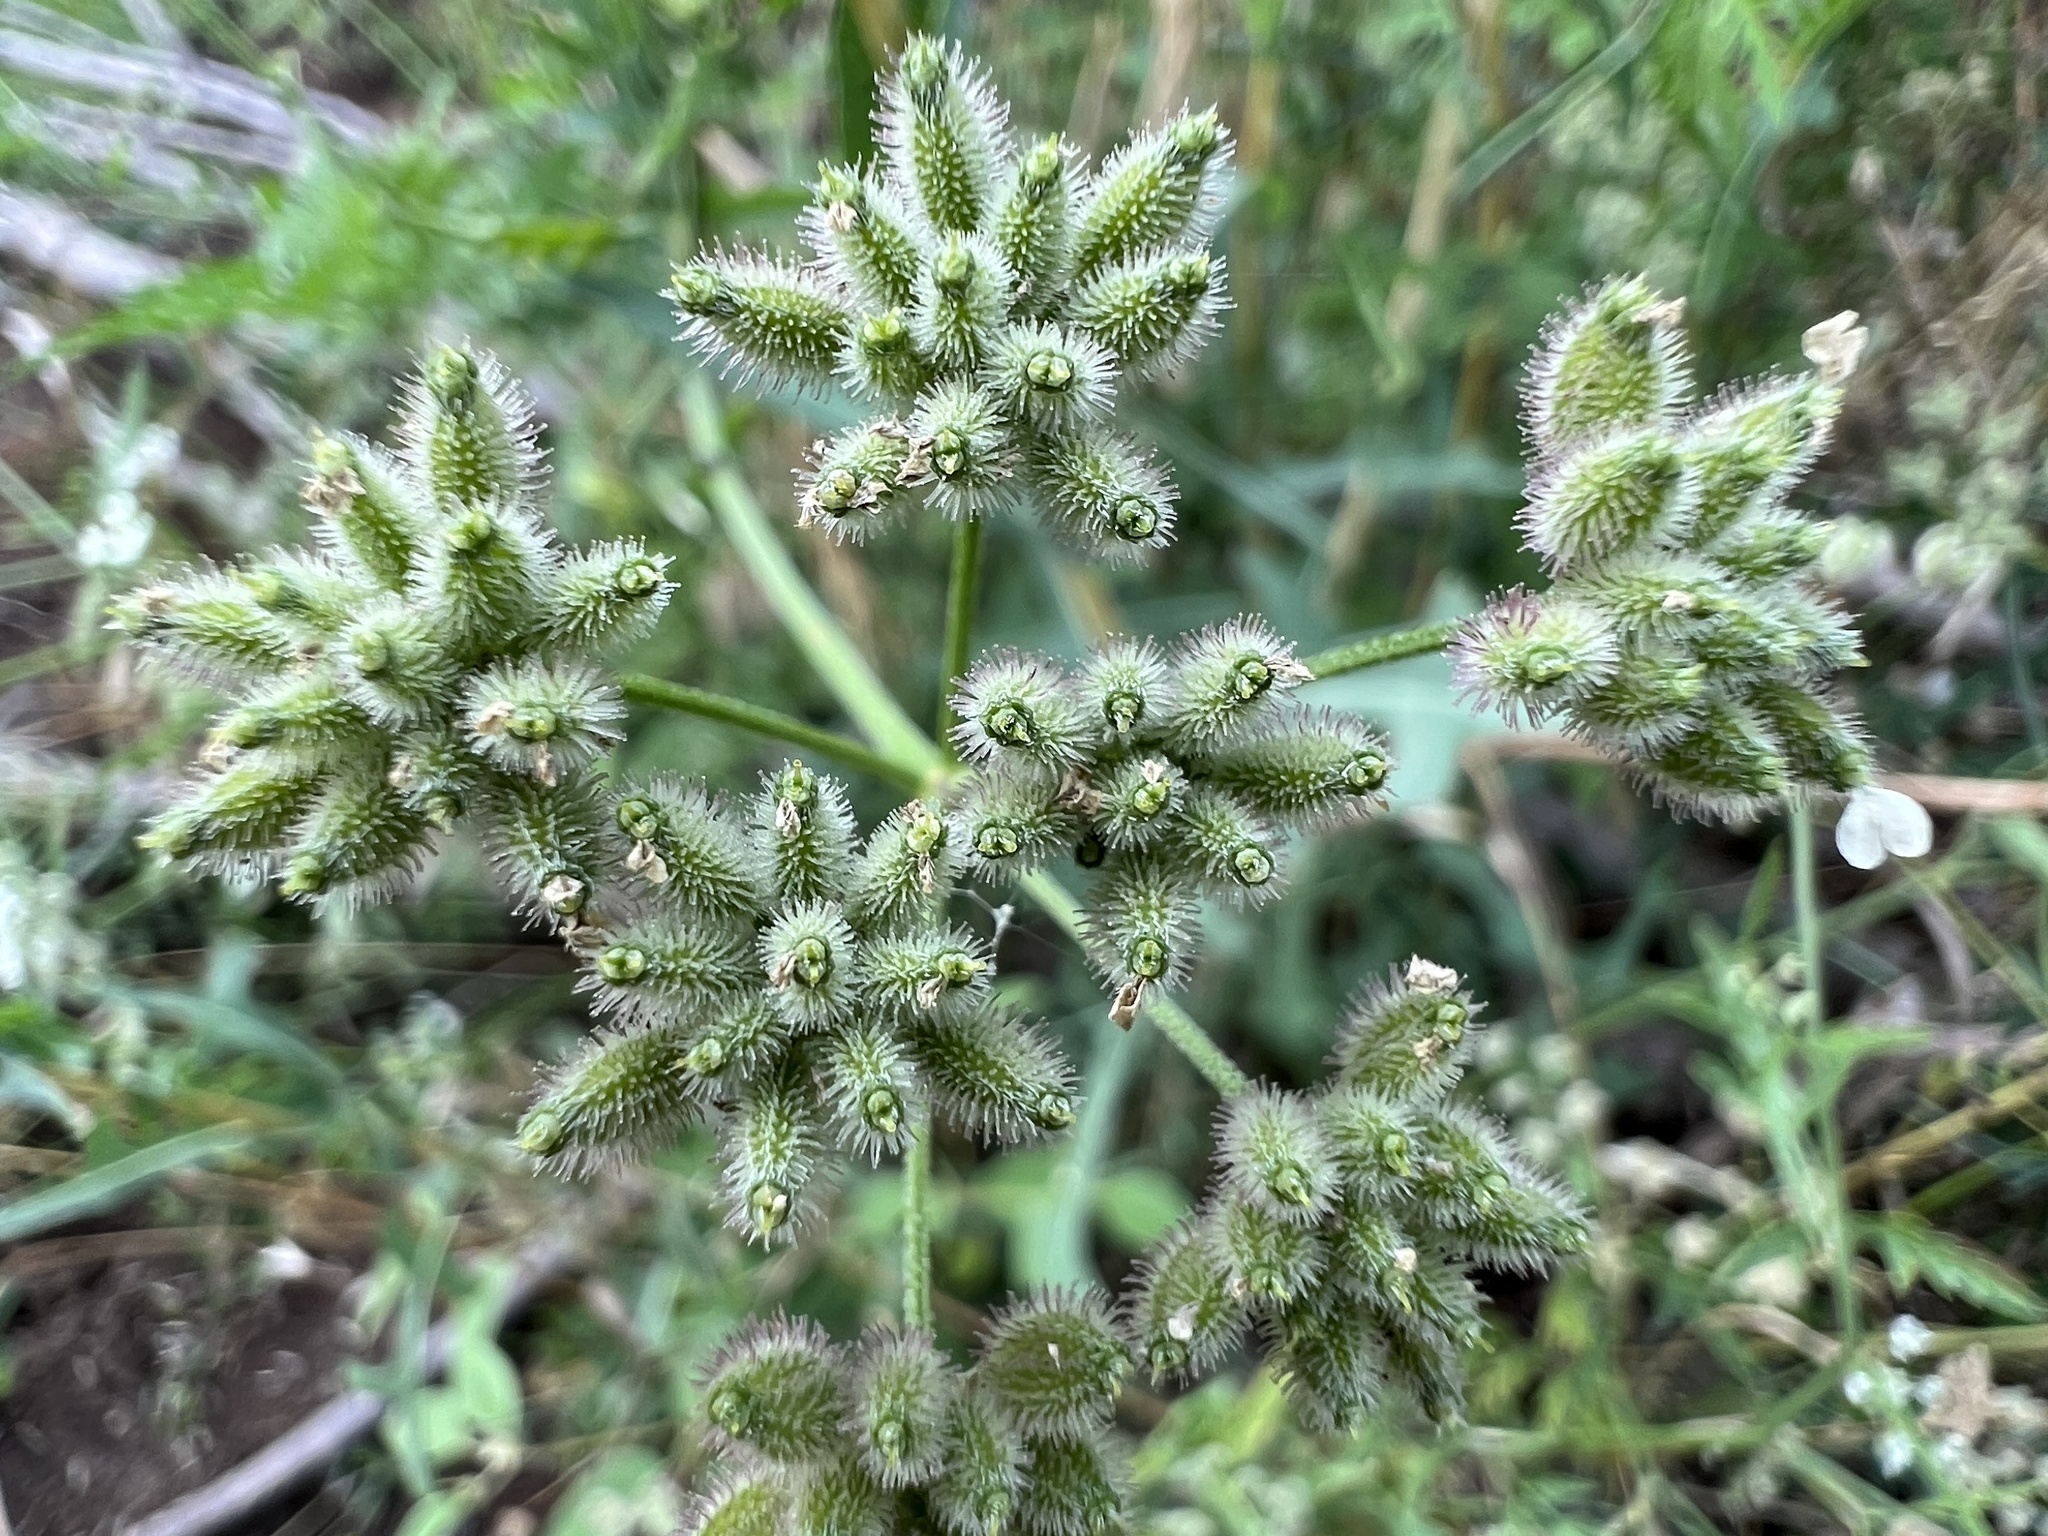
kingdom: Plantae
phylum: Tracheophyta
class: Magnoliopsida
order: Apiales
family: Apiaceae
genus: Torilis
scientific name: Torilis arvensis
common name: Spreading hedge-parsley
